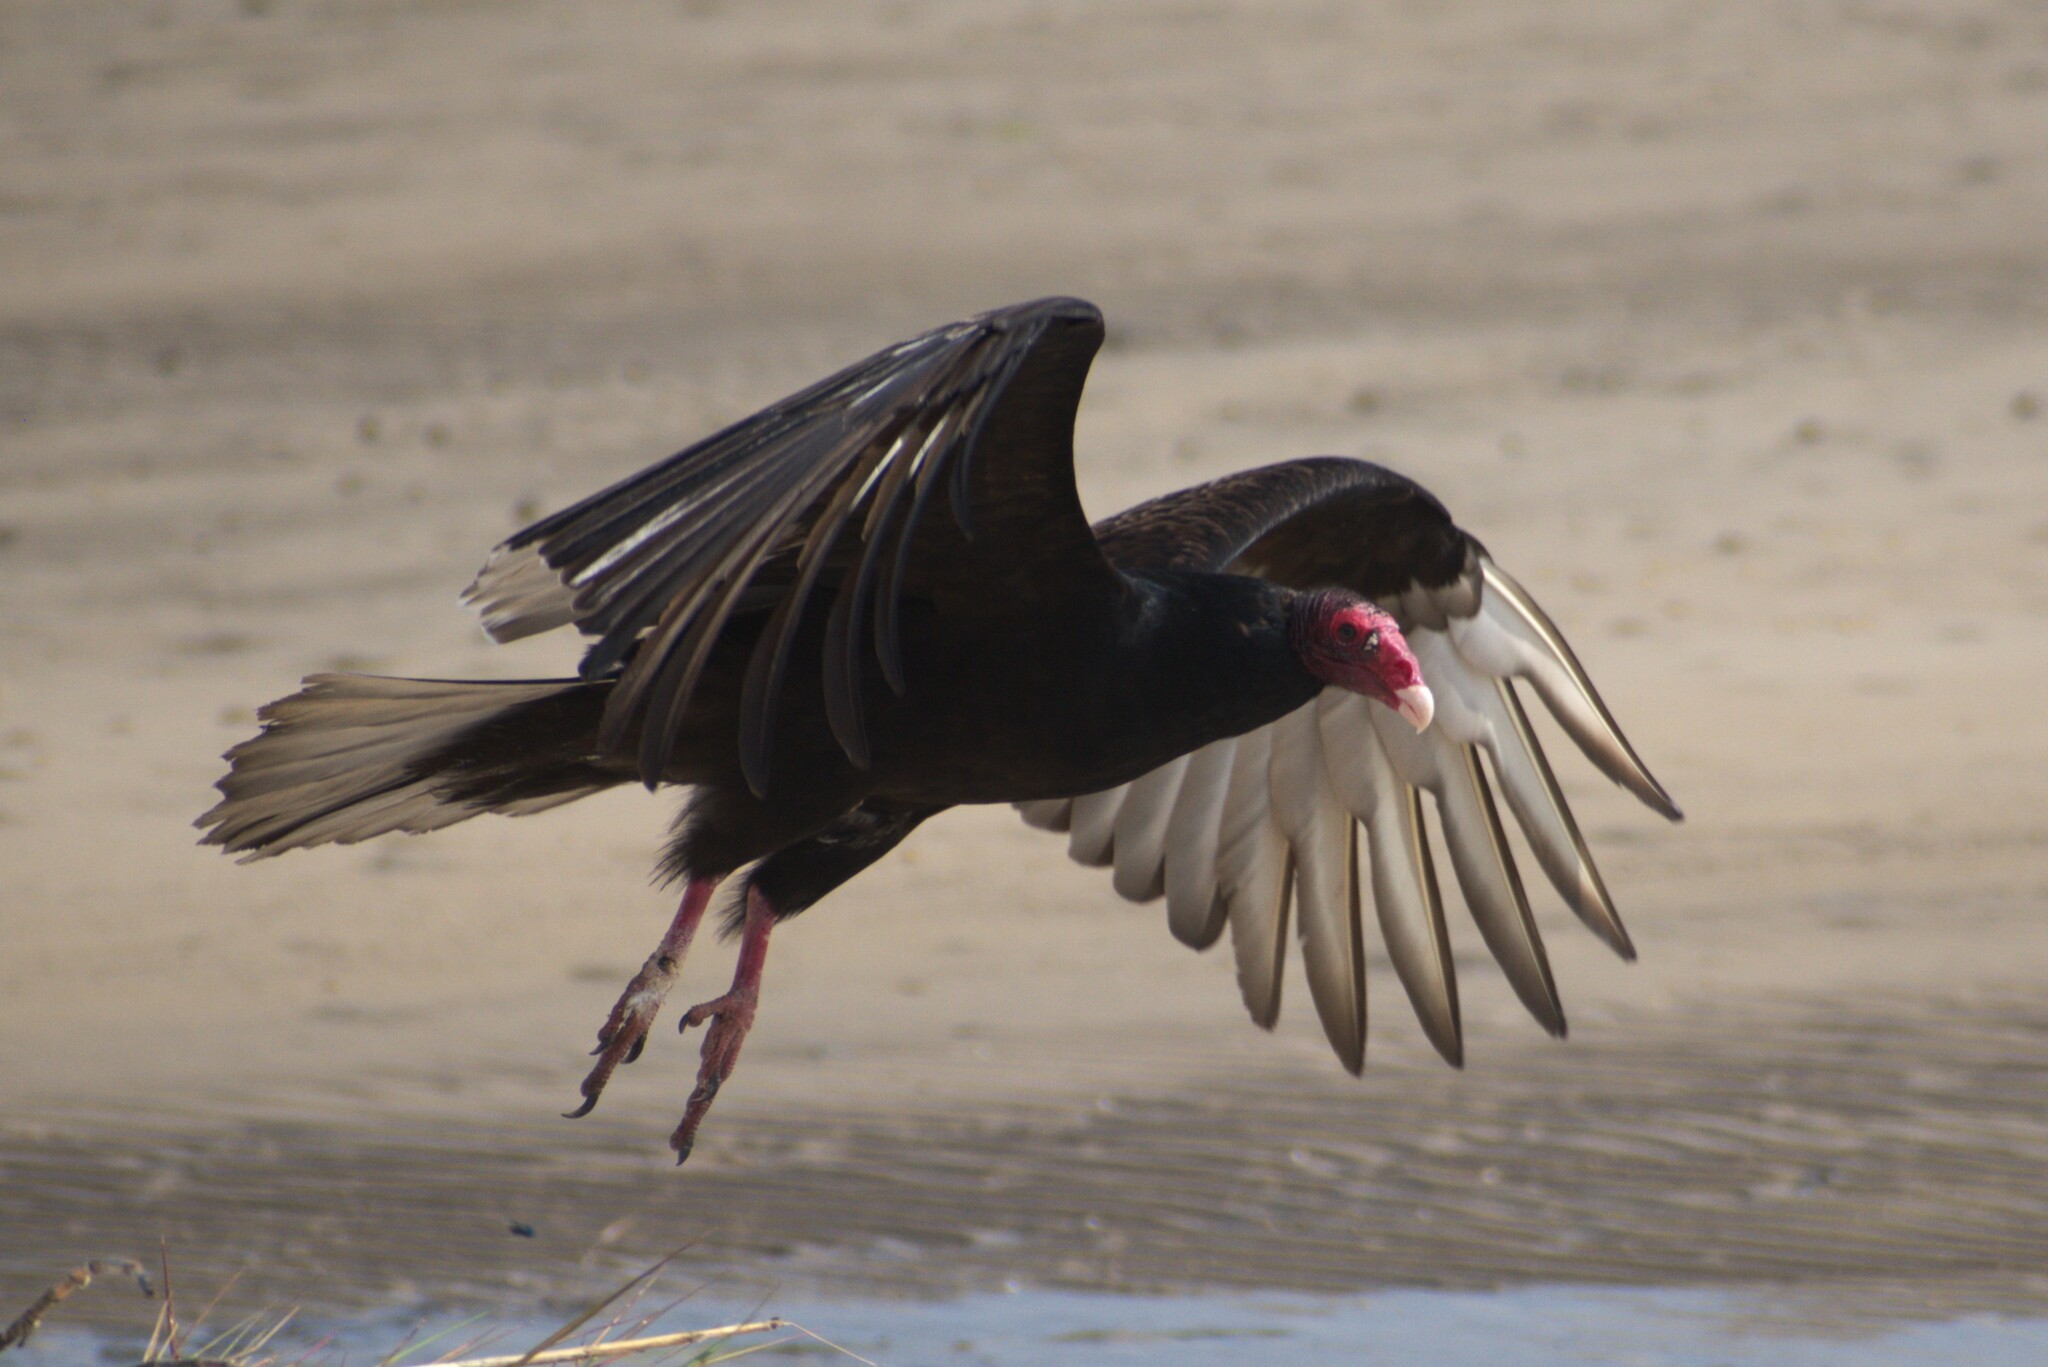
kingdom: Animalia
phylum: Chordata
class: Aves
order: Accipitriformes
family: Cathartidae
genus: Cathartes
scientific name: Cathartes aura
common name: Turkey vulture
